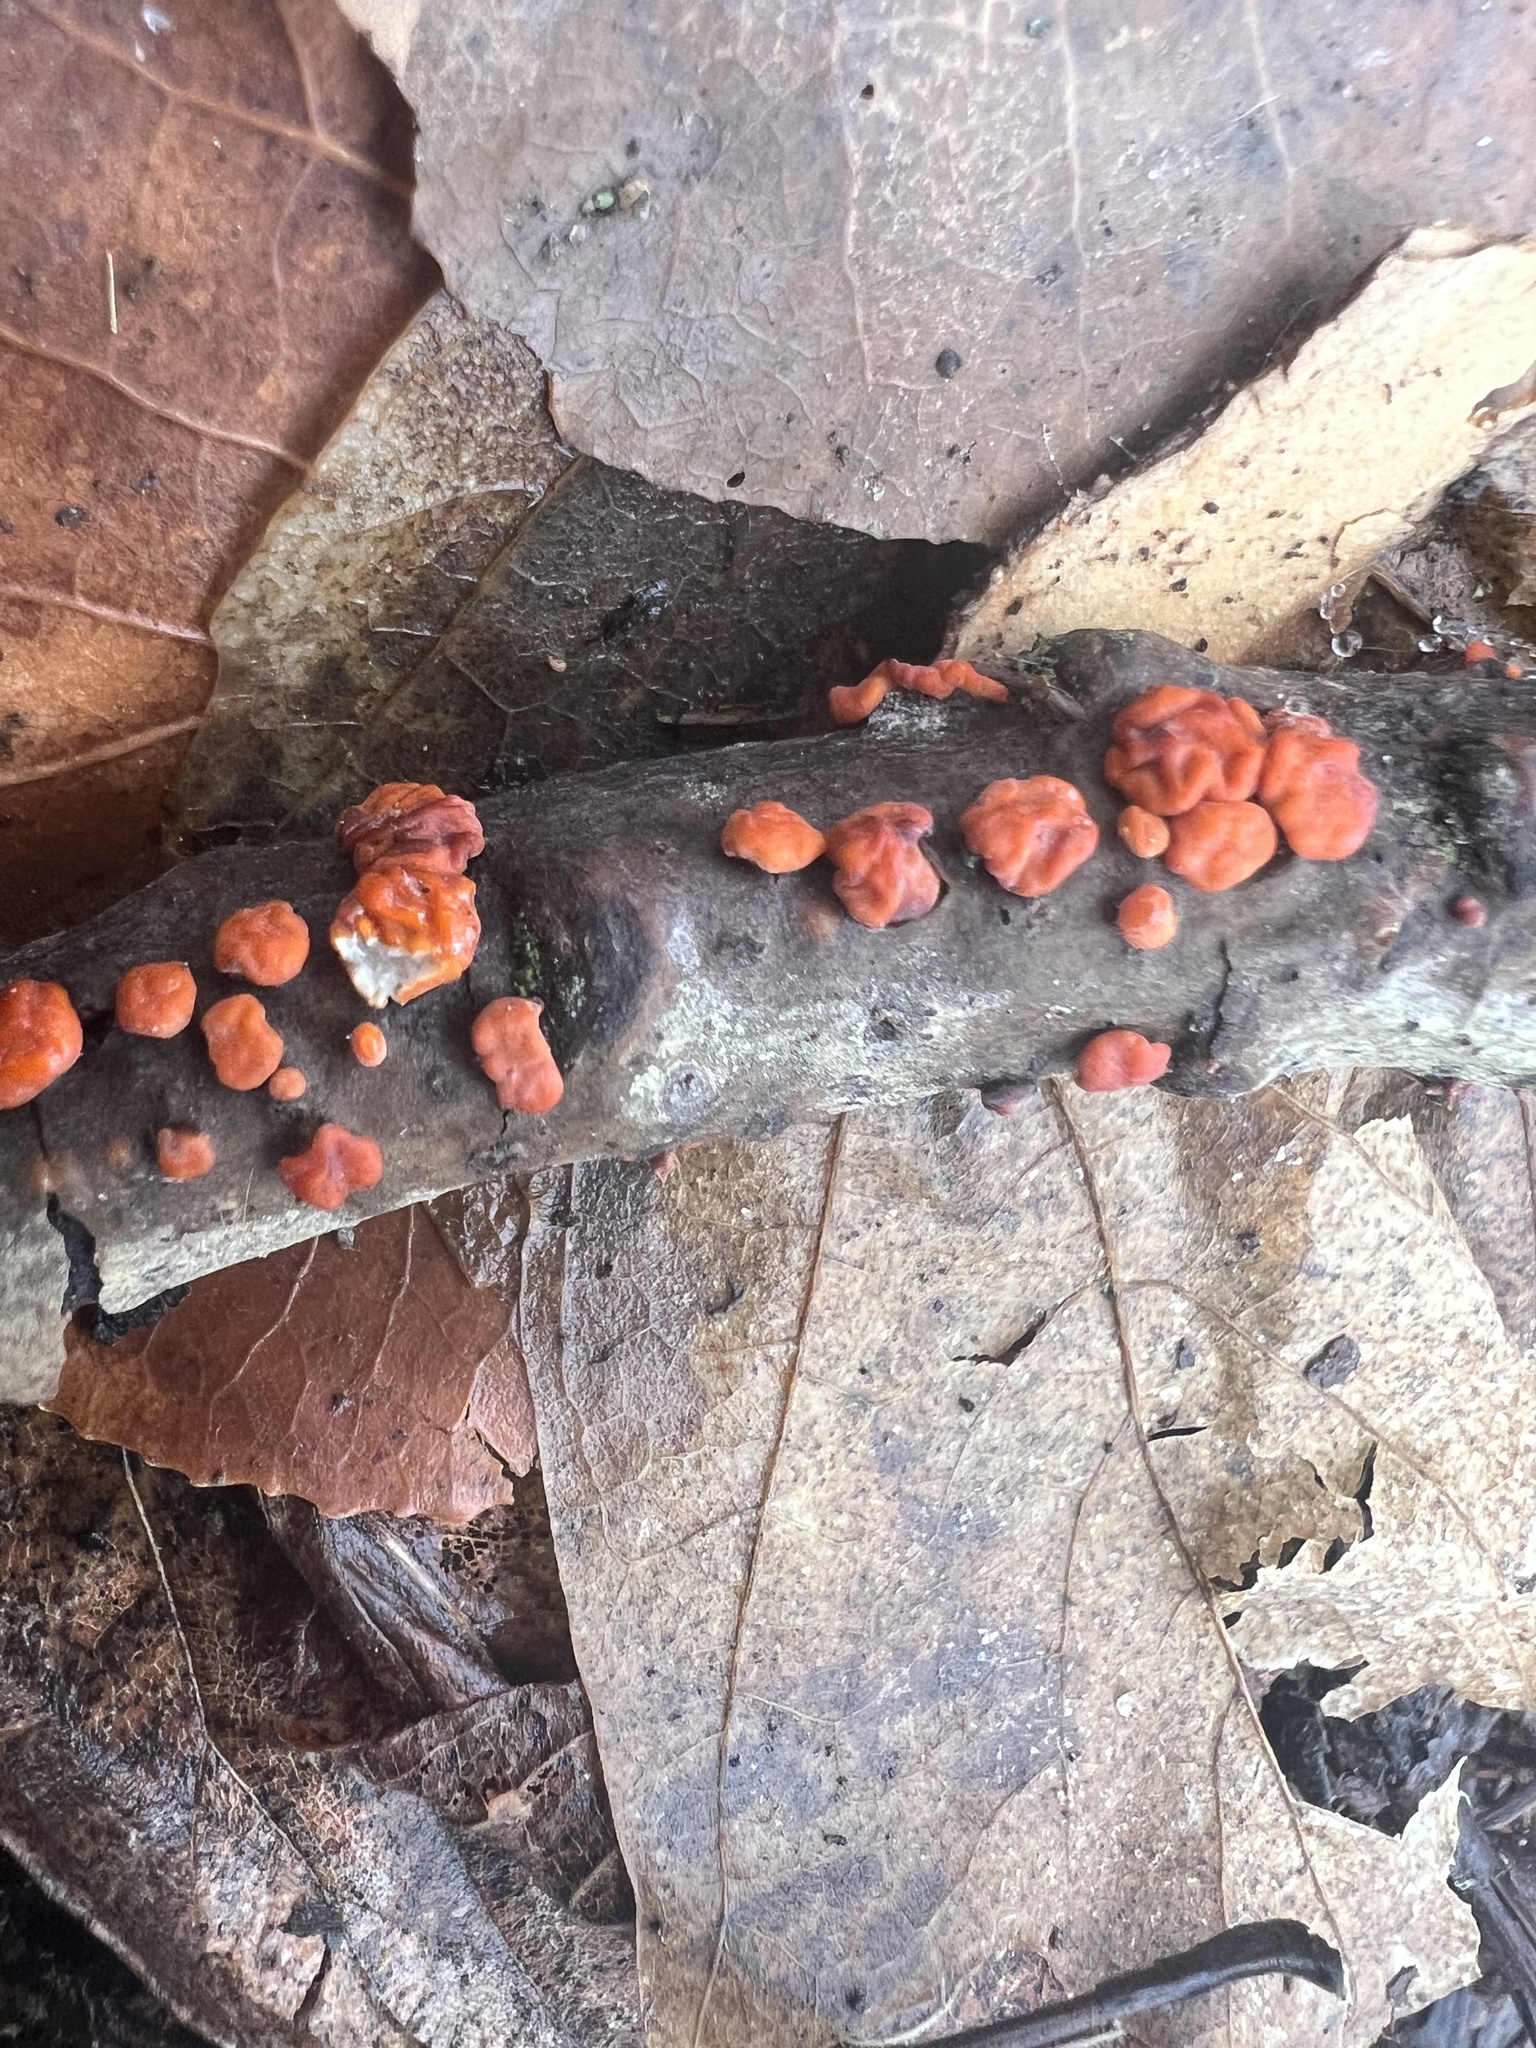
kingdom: Fungi
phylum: Basidiomycota
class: Agaricomycetes
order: Russulales
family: Peniophoraceae
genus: Peniophora
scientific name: Peniophora rufa
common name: Red tree brain fungus
